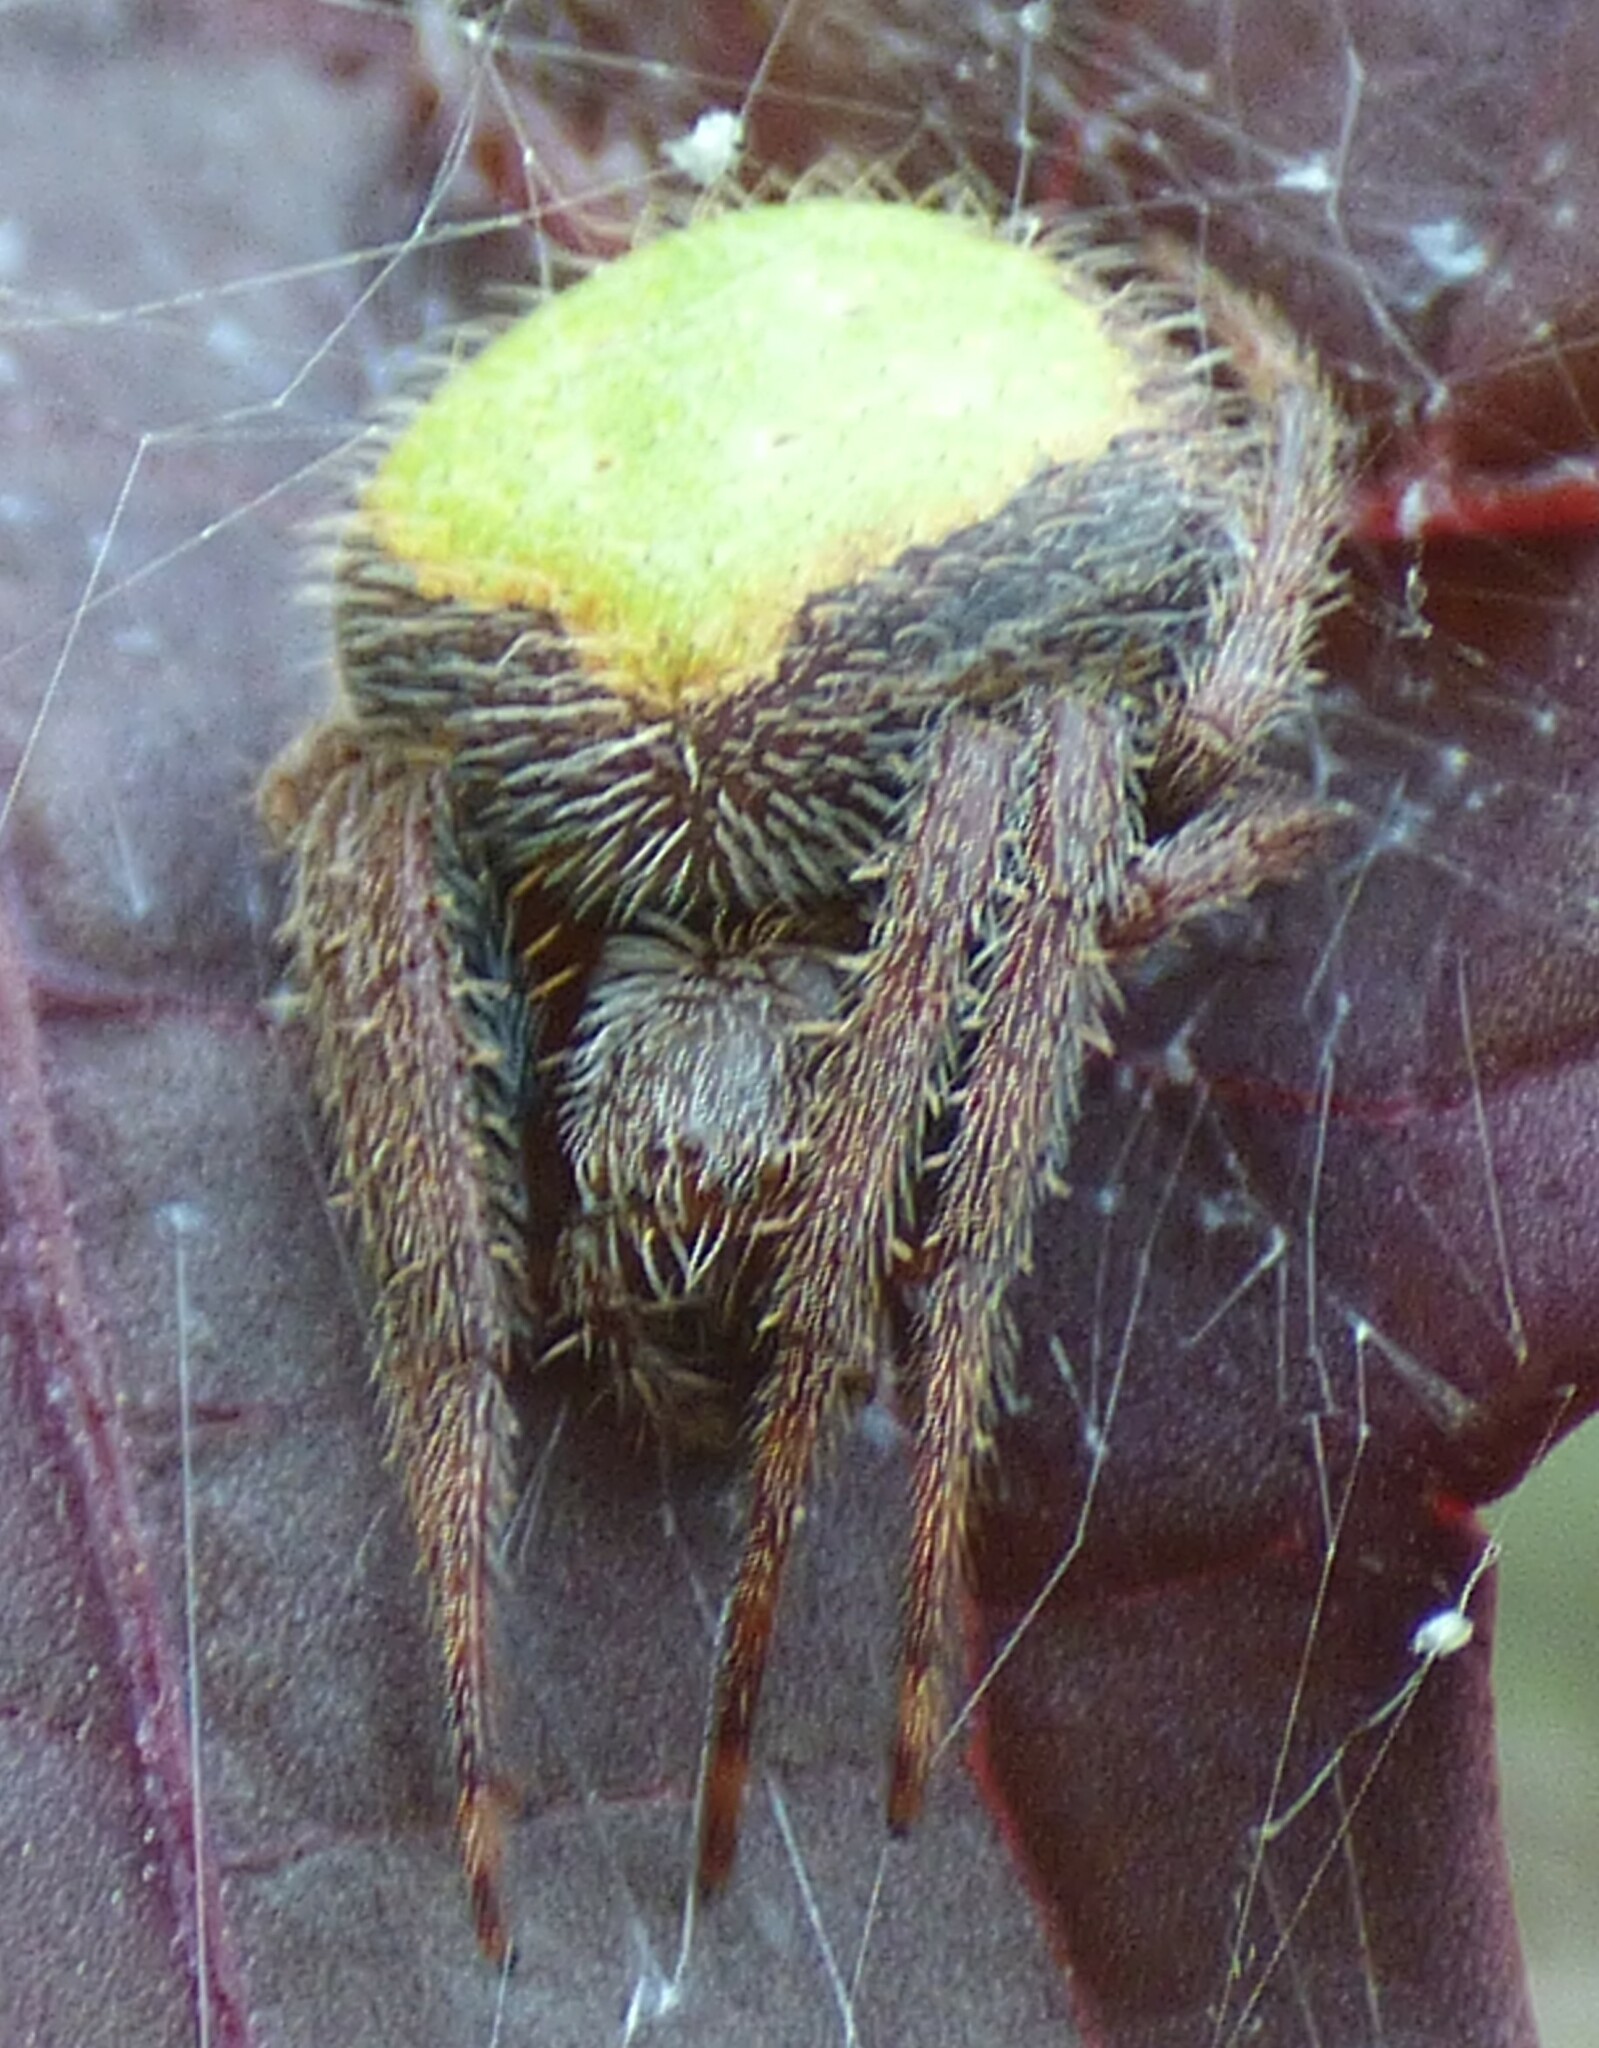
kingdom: Animalia
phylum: Arthropoda
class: Arachnida
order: Araneae
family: Araneidae
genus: Eriophora
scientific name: Eriophora ravilla
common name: Orb weavers
